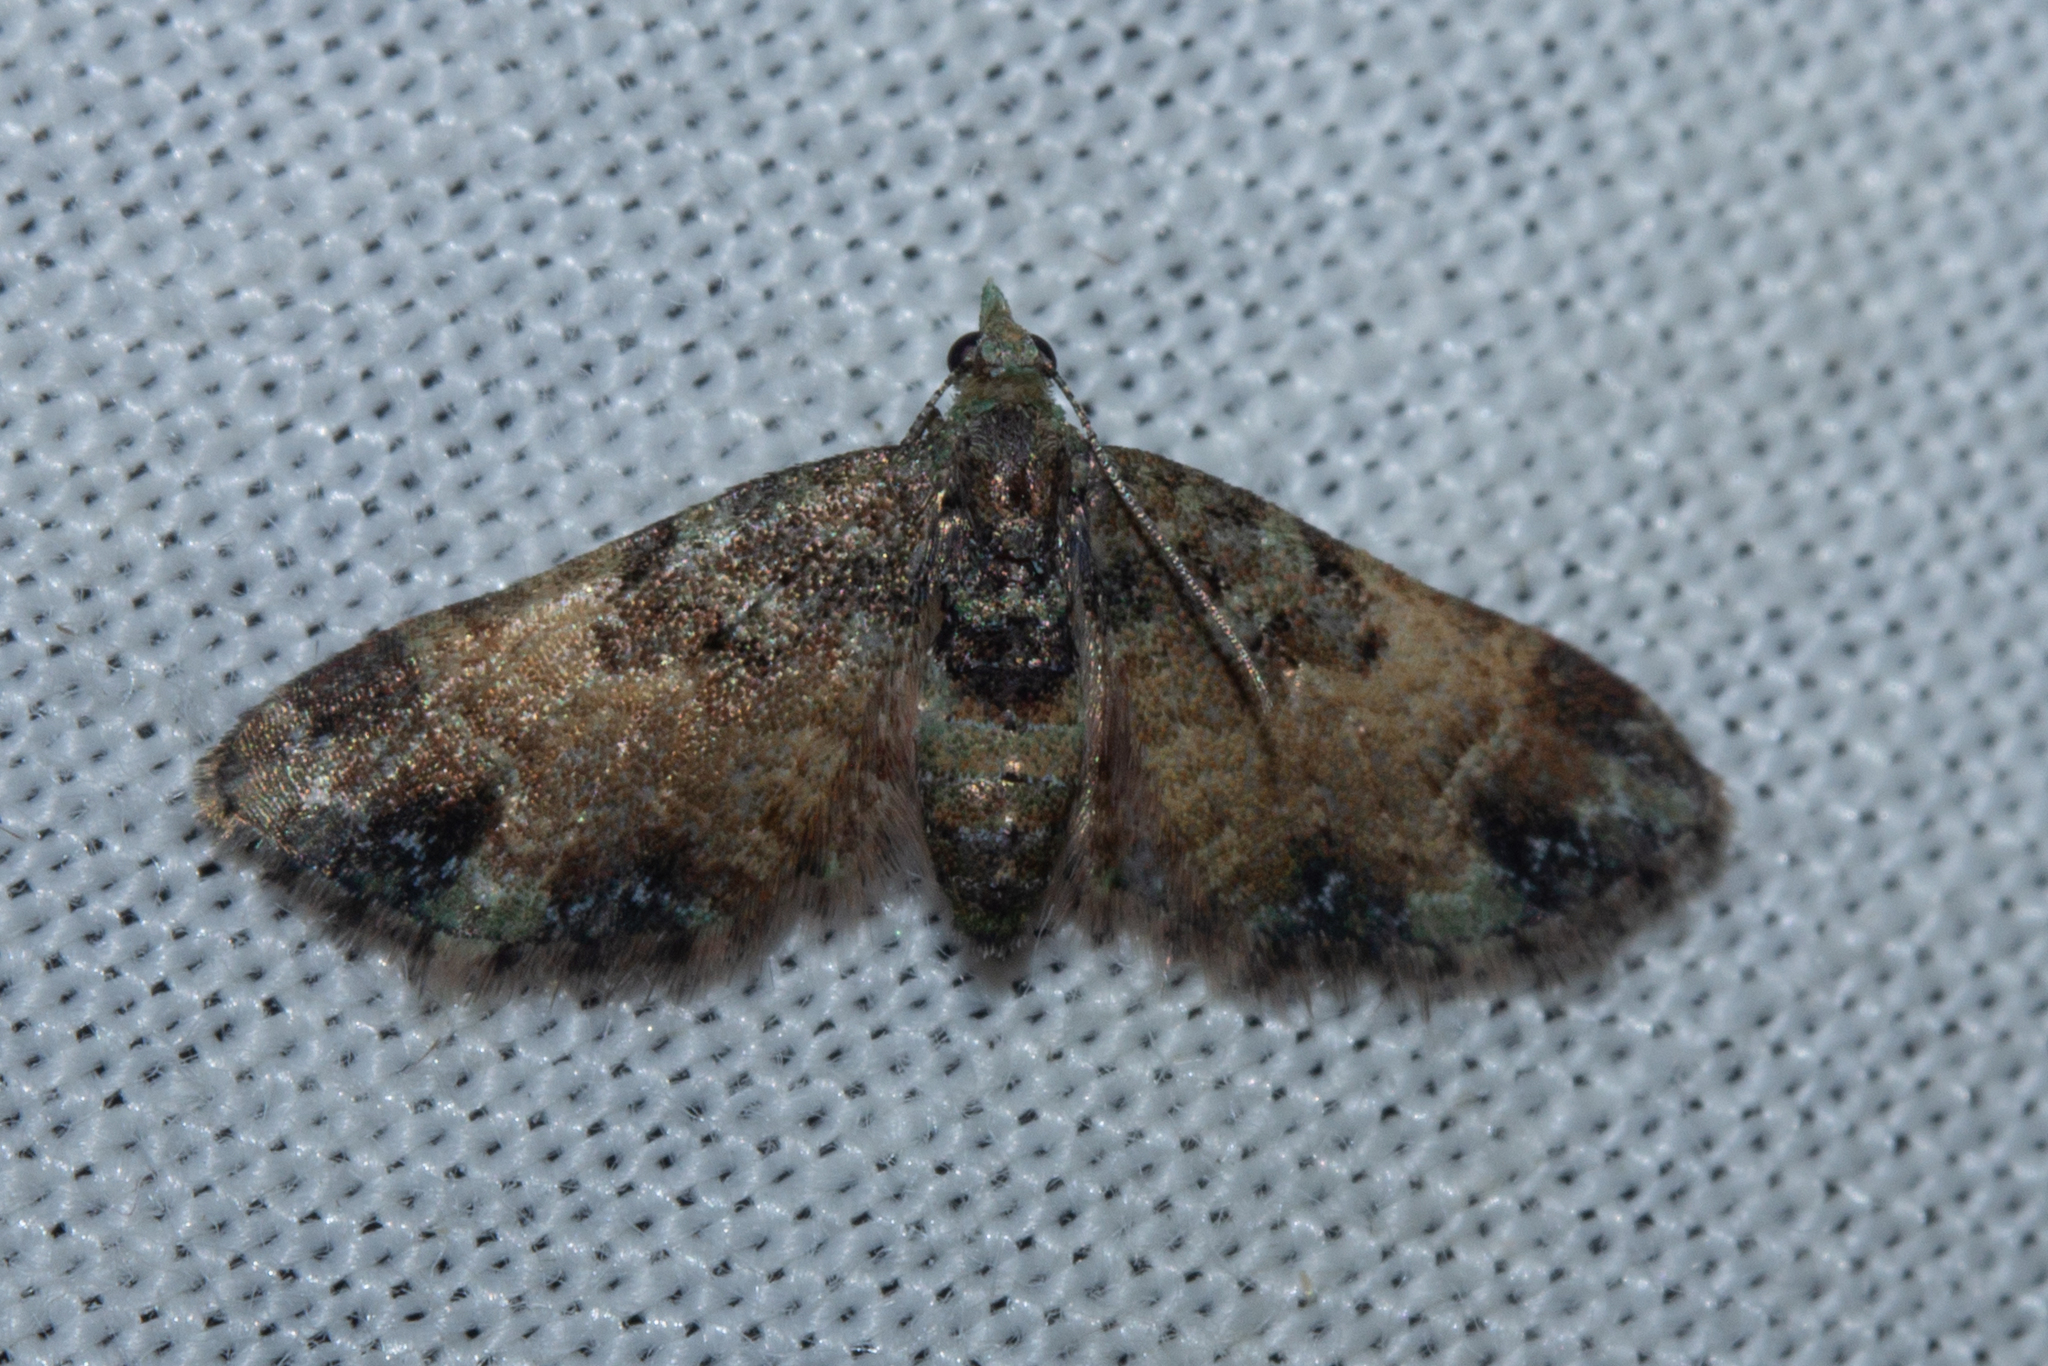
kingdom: Animalia
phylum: Arthropoda
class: Insecta
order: Lepidoptera
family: Geometridae
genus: Pasiphila
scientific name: Pasiphila sandycias
